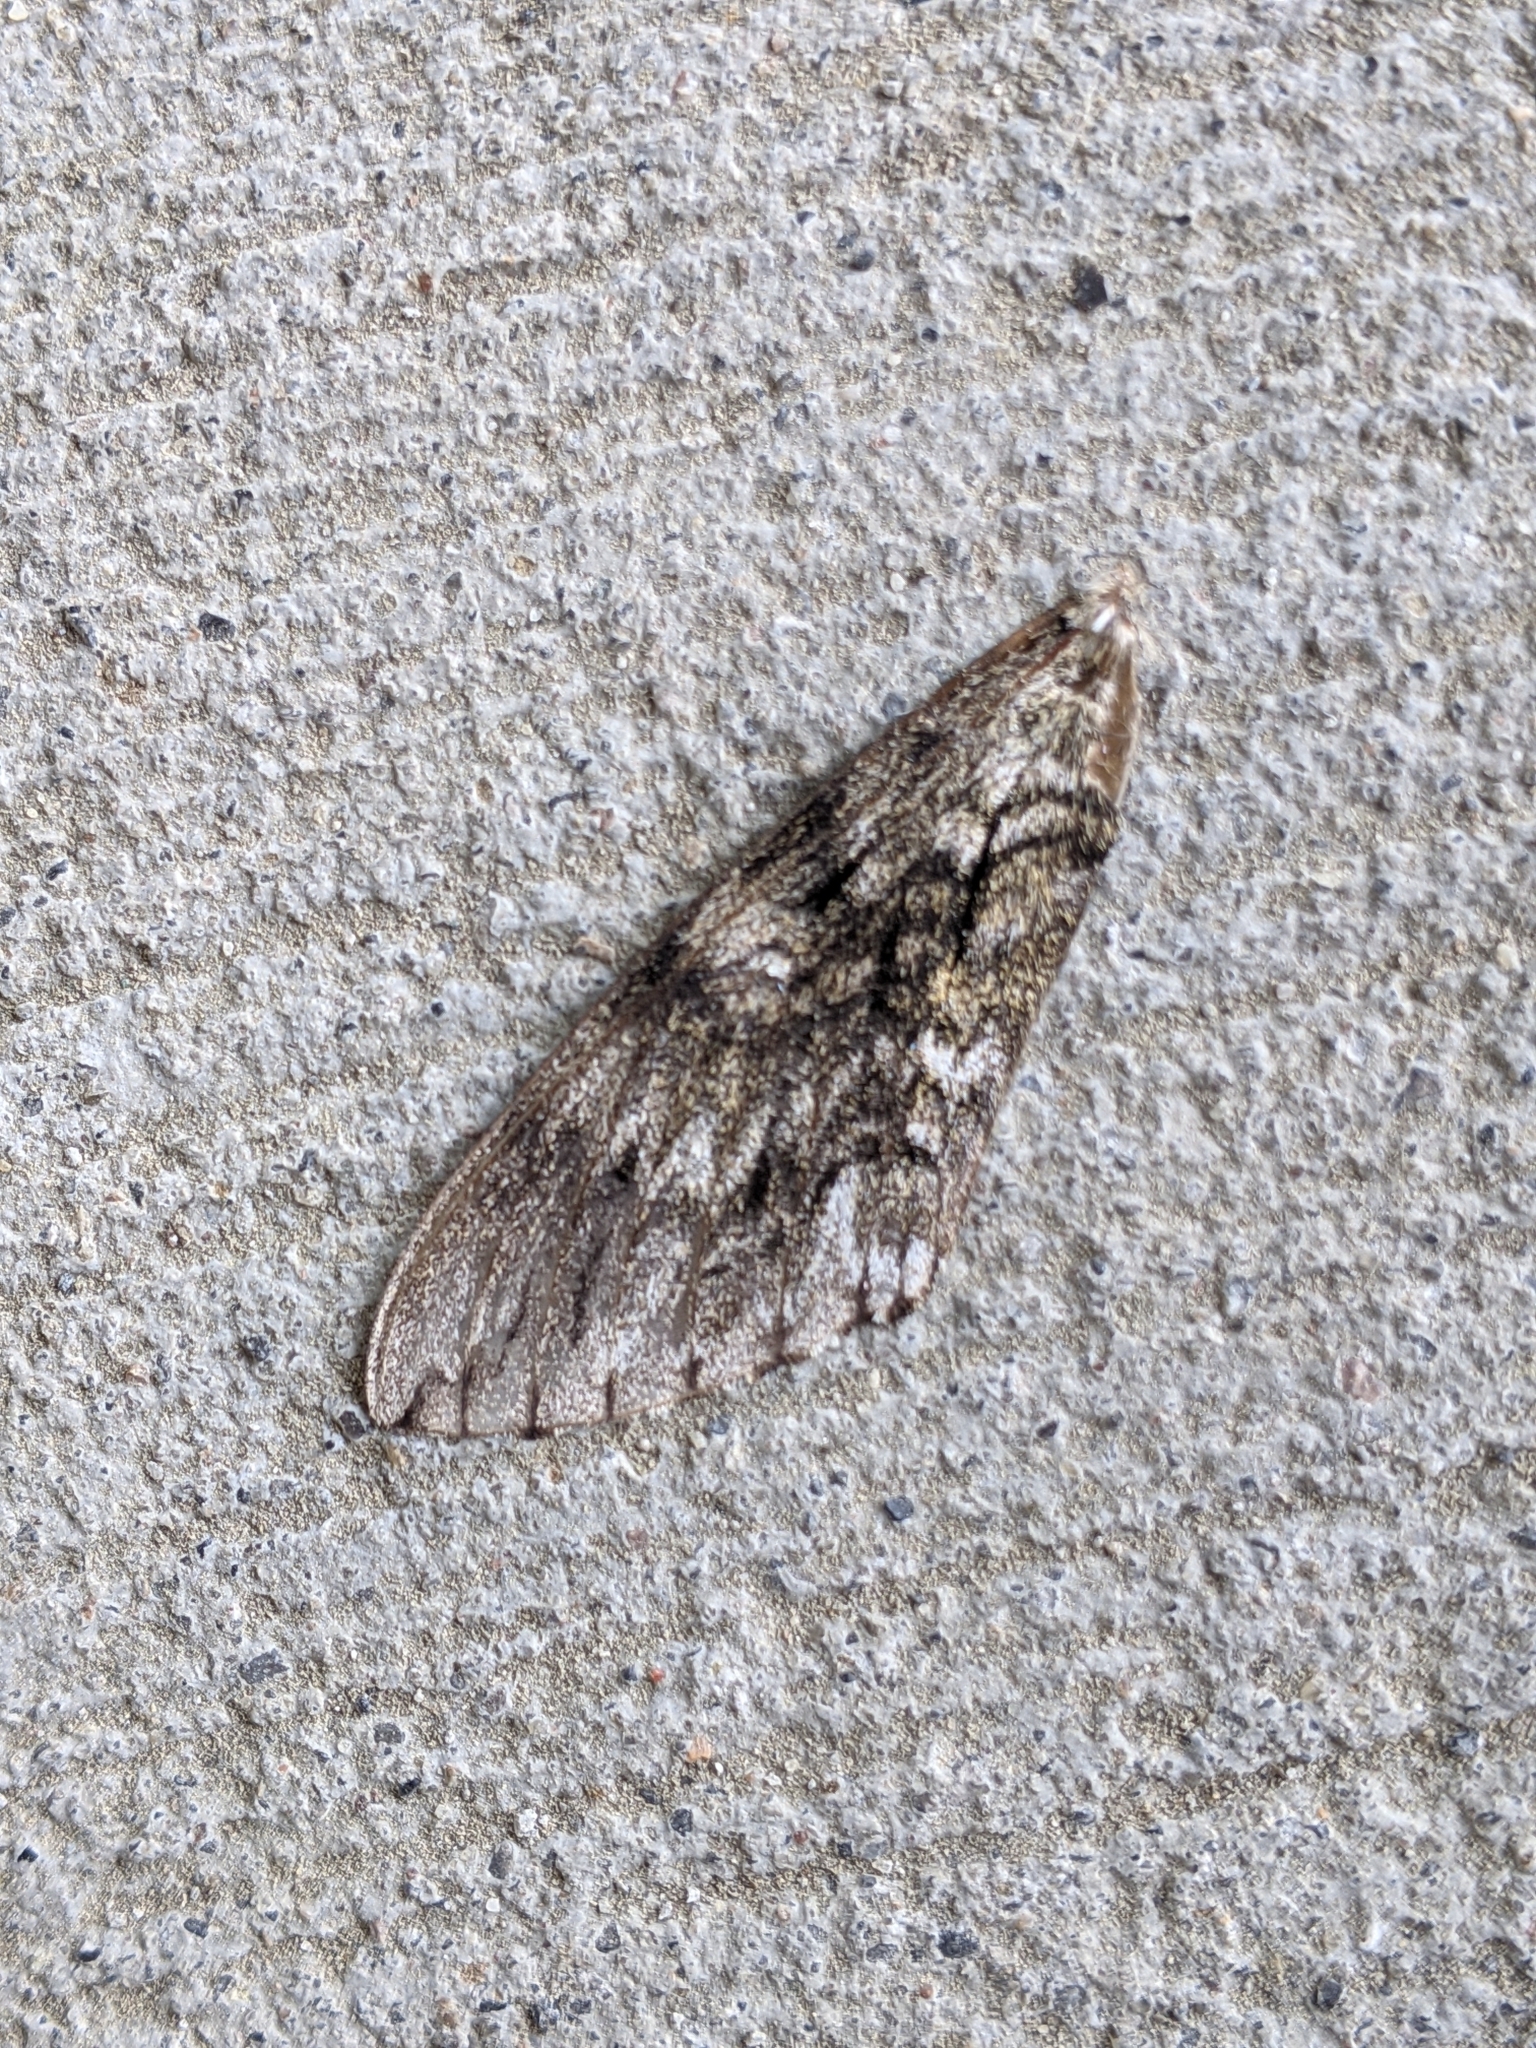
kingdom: Animalia
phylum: Arthropoda
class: Insecta
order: Lepidoptera
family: Sphingidae
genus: Ceratomia
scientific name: Ceratomia undulosa
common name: Waved sphinx
